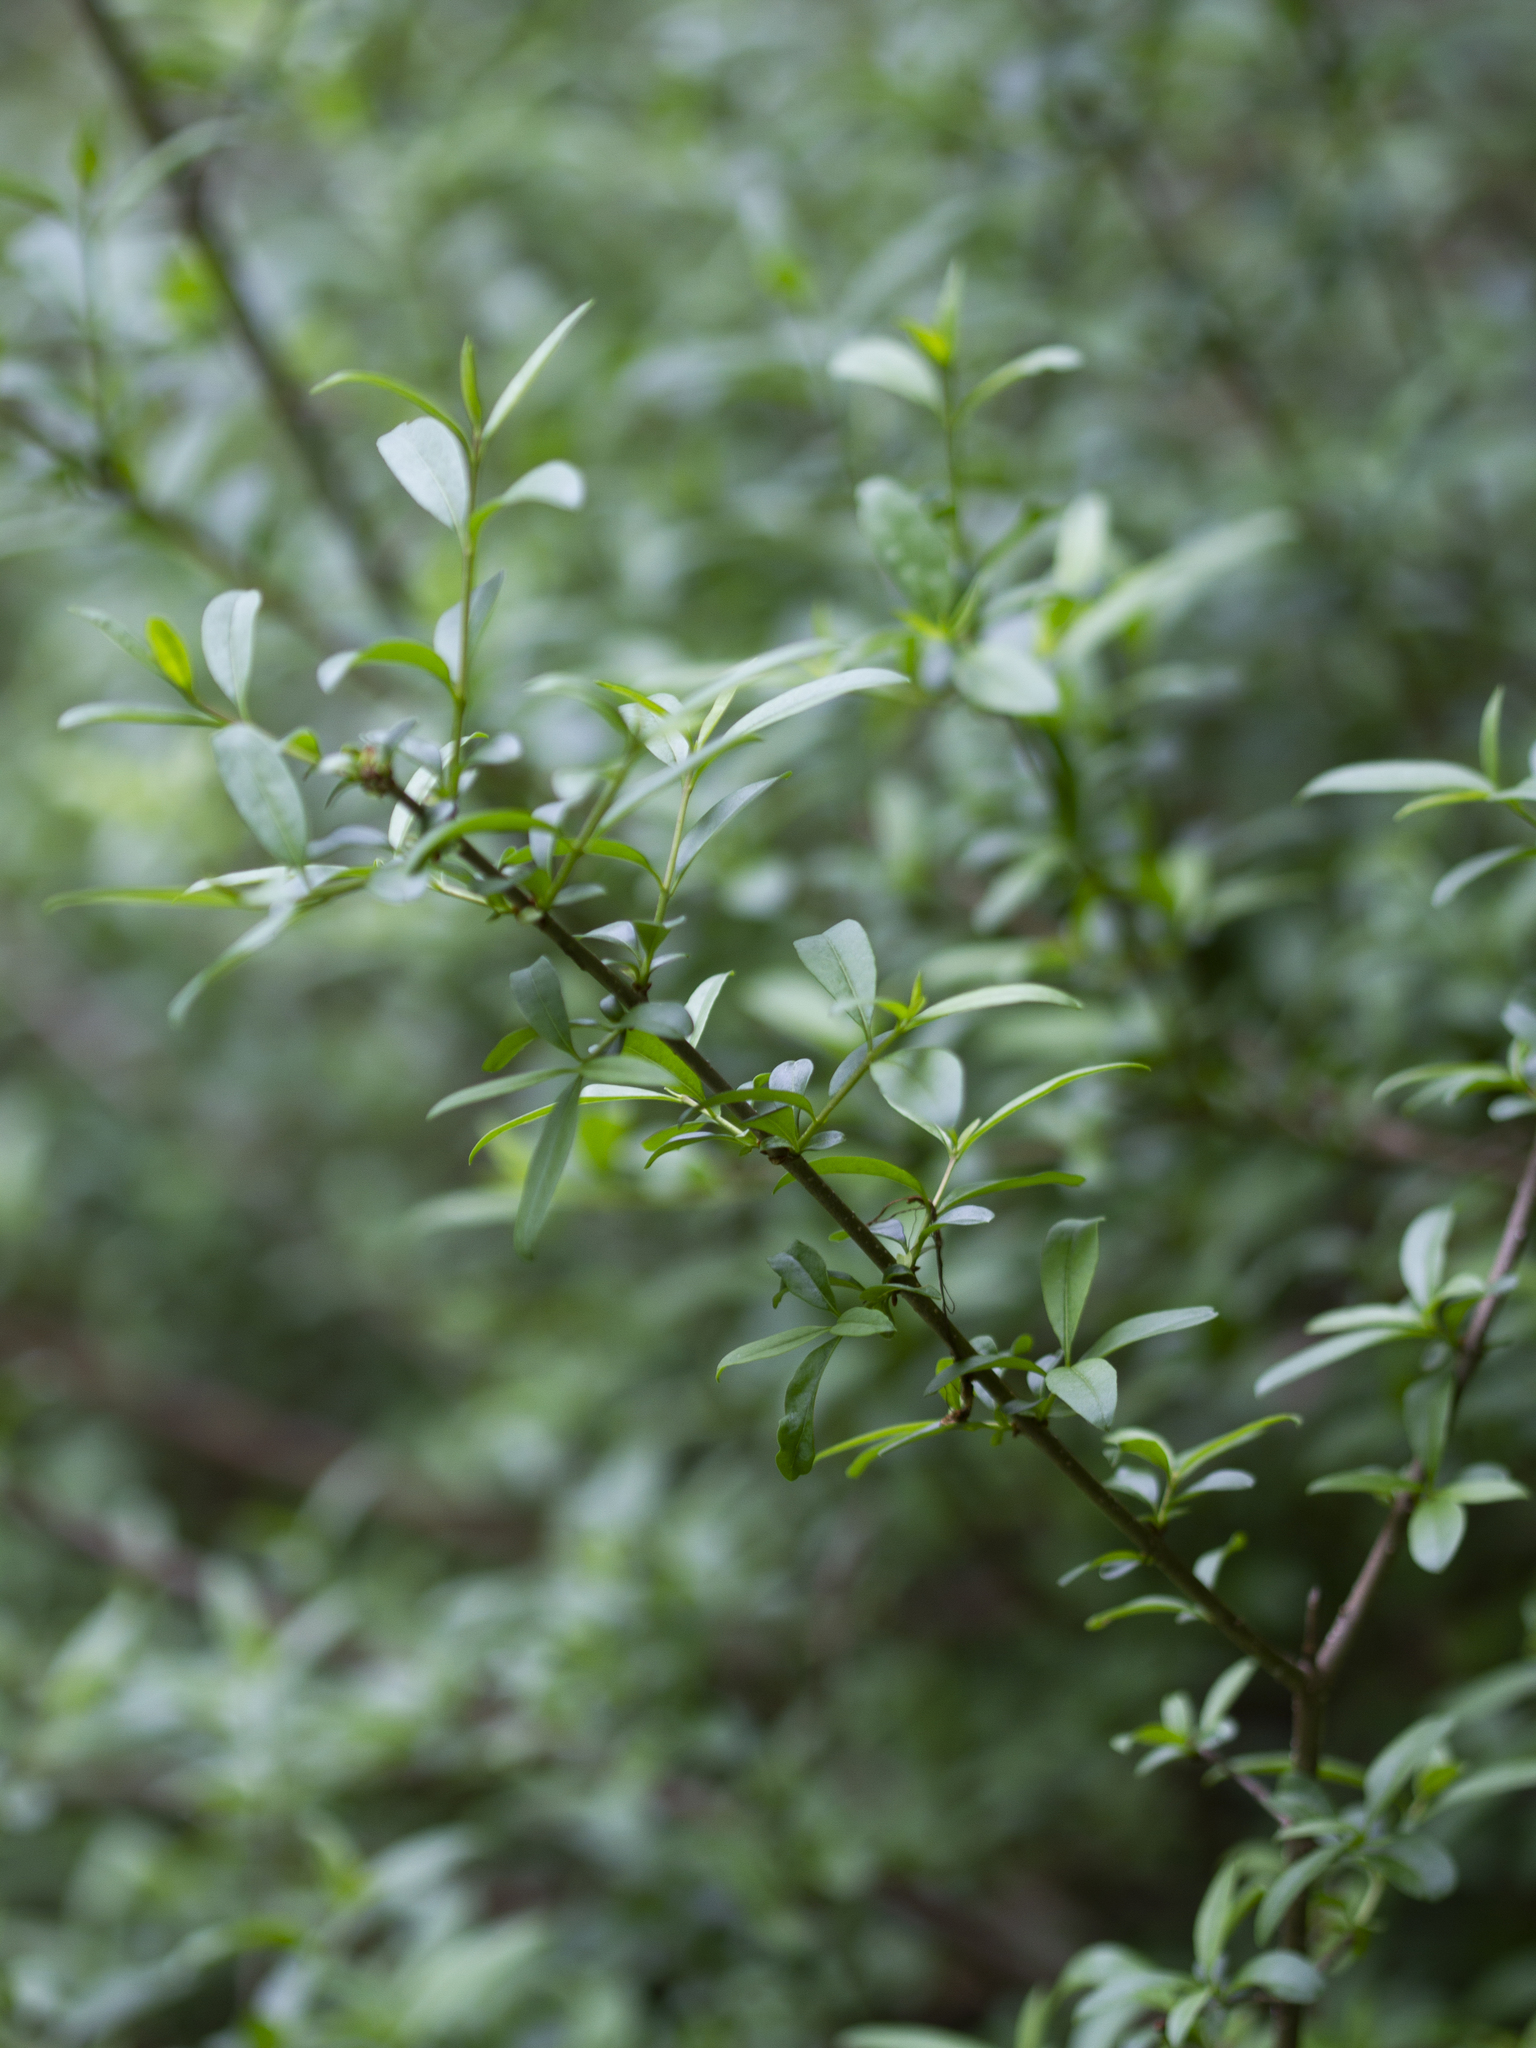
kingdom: Plantae
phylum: Tracheophyta
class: Magnoliopsida
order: Lamiales
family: Oleaceae
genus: Ligustrum
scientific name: Ligustrum vulgare
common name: Wild privet
